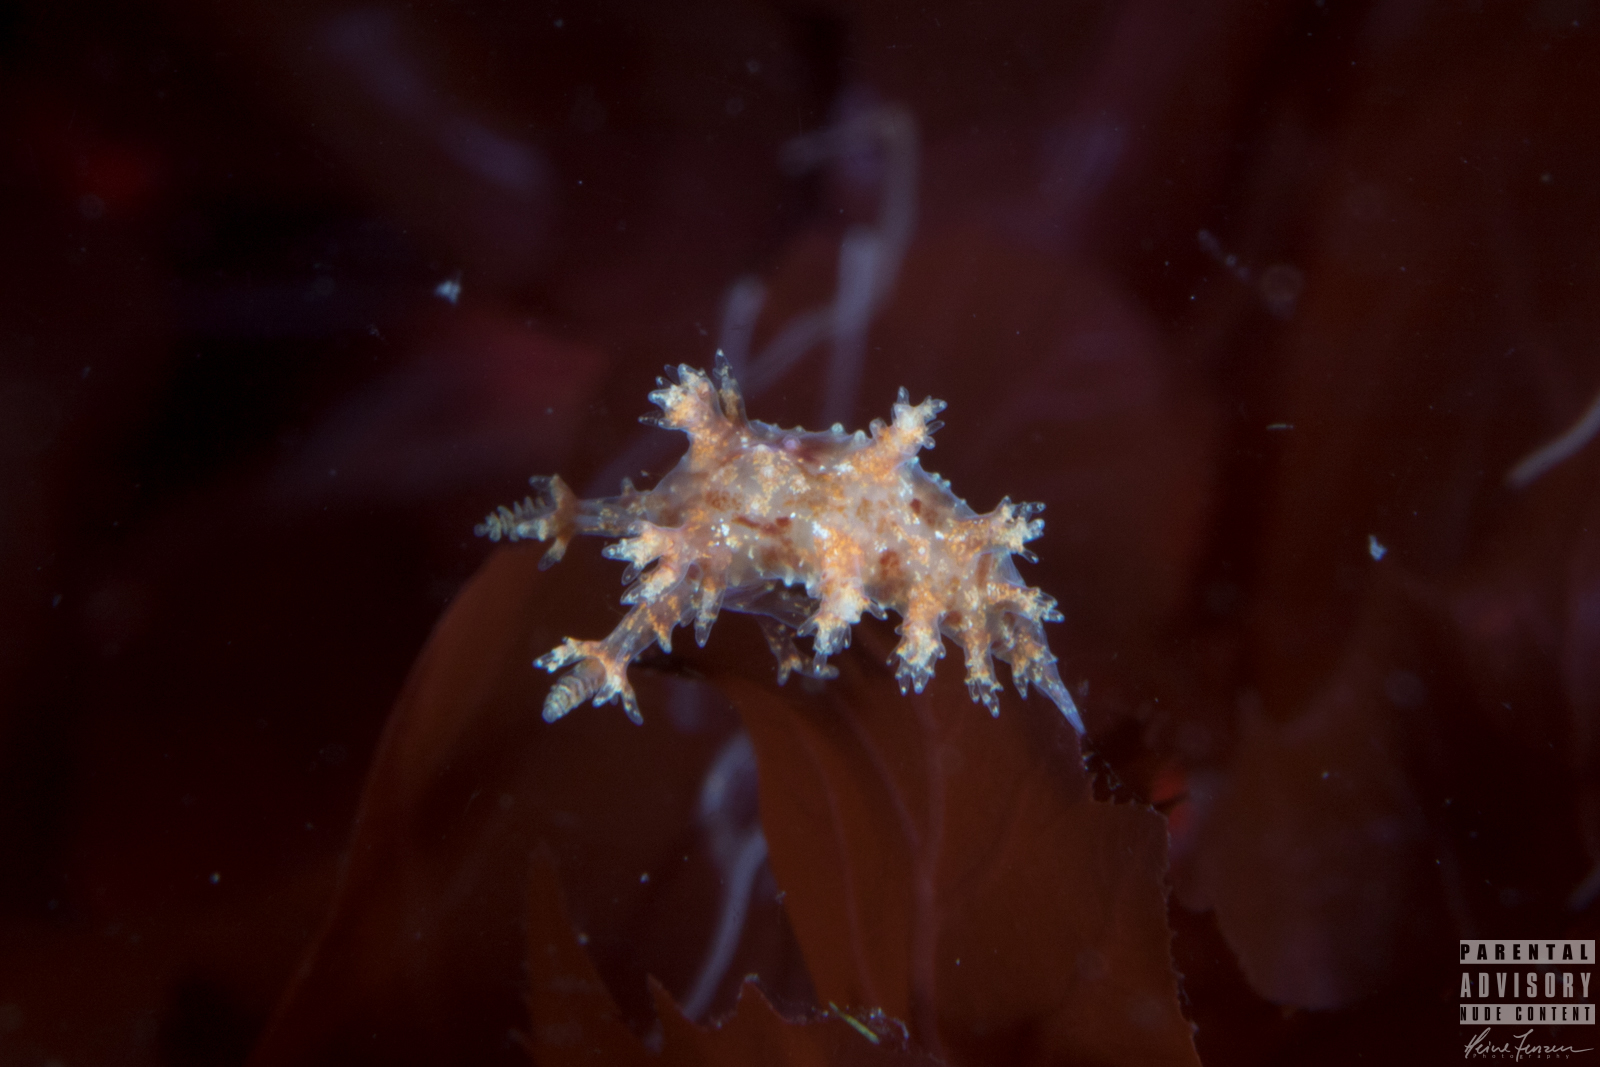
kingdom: Animalia
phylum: Mollusca
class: Gastropoda
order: Nudibranchia
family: Dendronotidae
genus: Dendronotus
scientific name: Dendronotus frondosus
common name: Bushy-backed nudibranch
